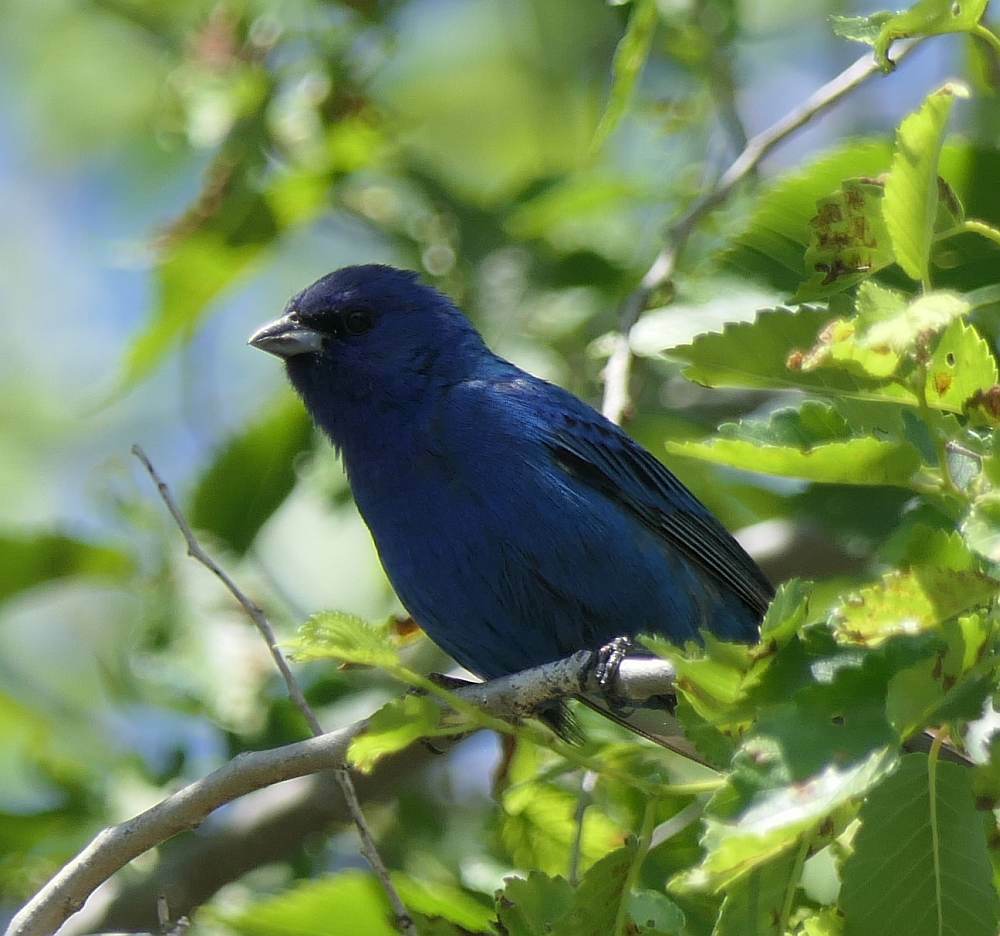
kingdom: Animalia
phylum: Chordata
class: Aves
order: Passeriformes
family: Cardinalidae
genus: Passerina
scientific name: Passerina cyanea
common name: Indigo bunting
